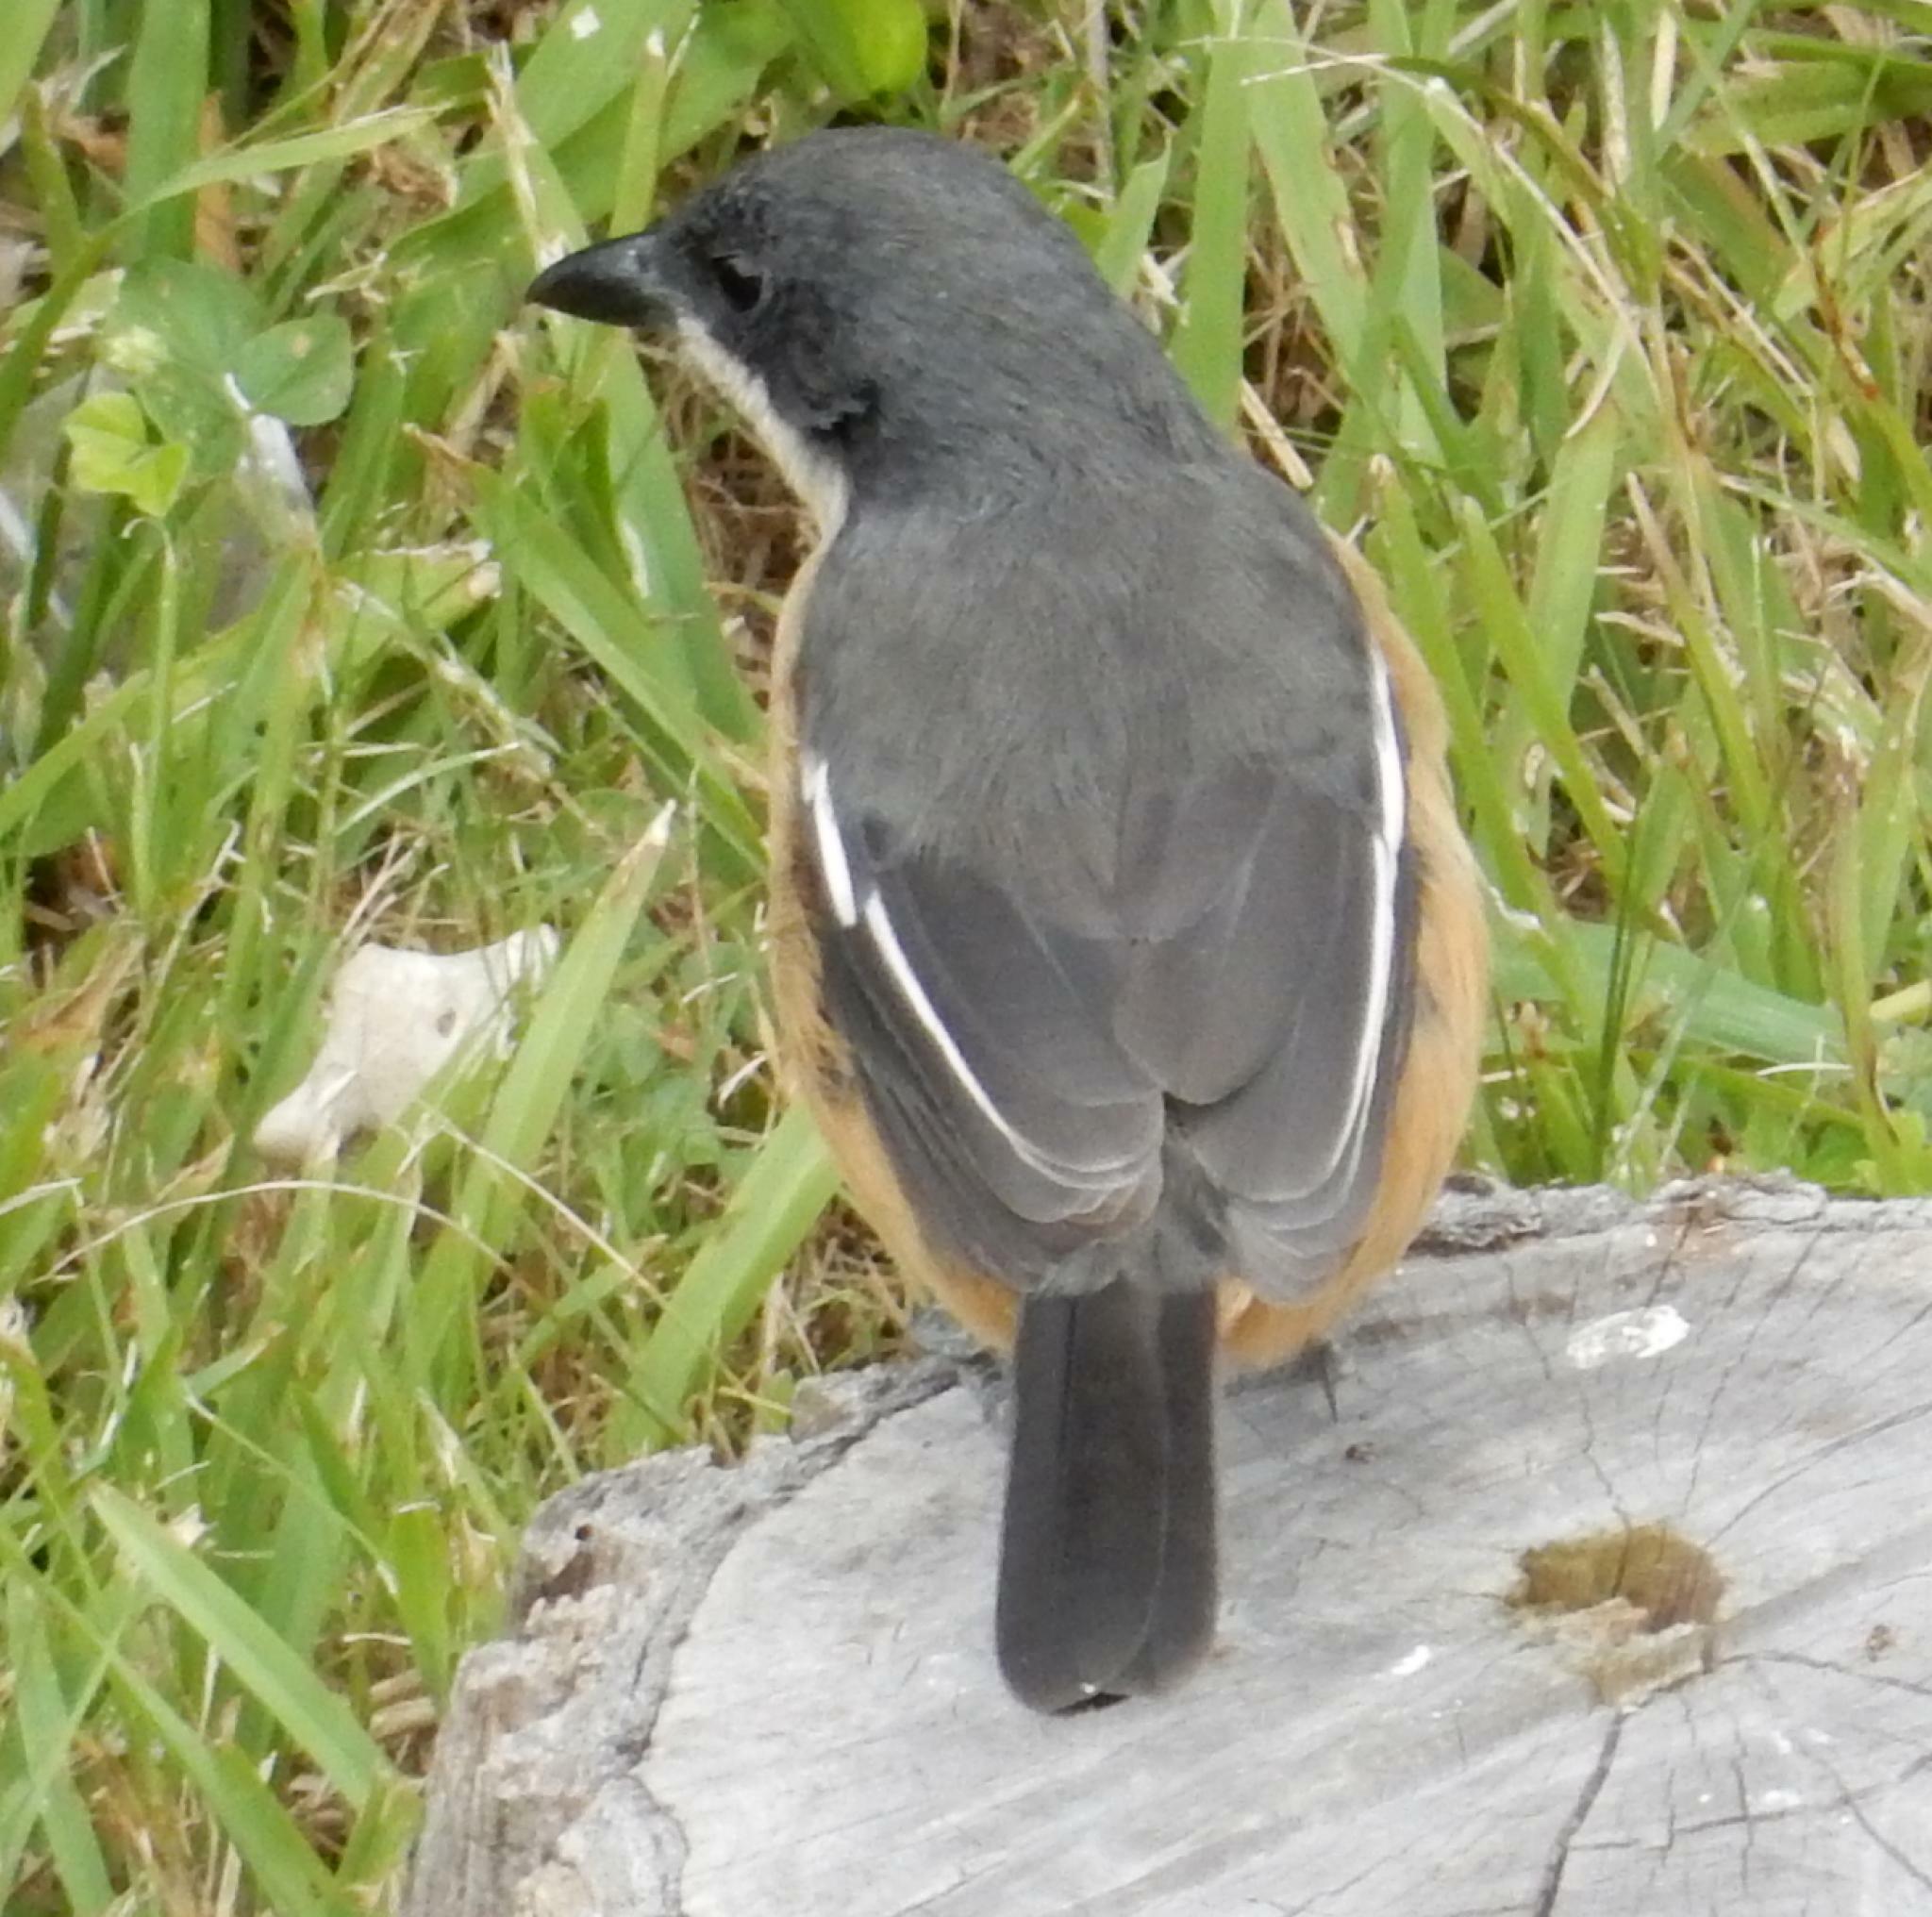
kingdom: Animalia
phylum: Chordata
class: Aves
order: Passeriformes
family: Malaconotidae
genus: Laniarius
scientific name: Laniarius ferrugineus
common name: Southern boubou
